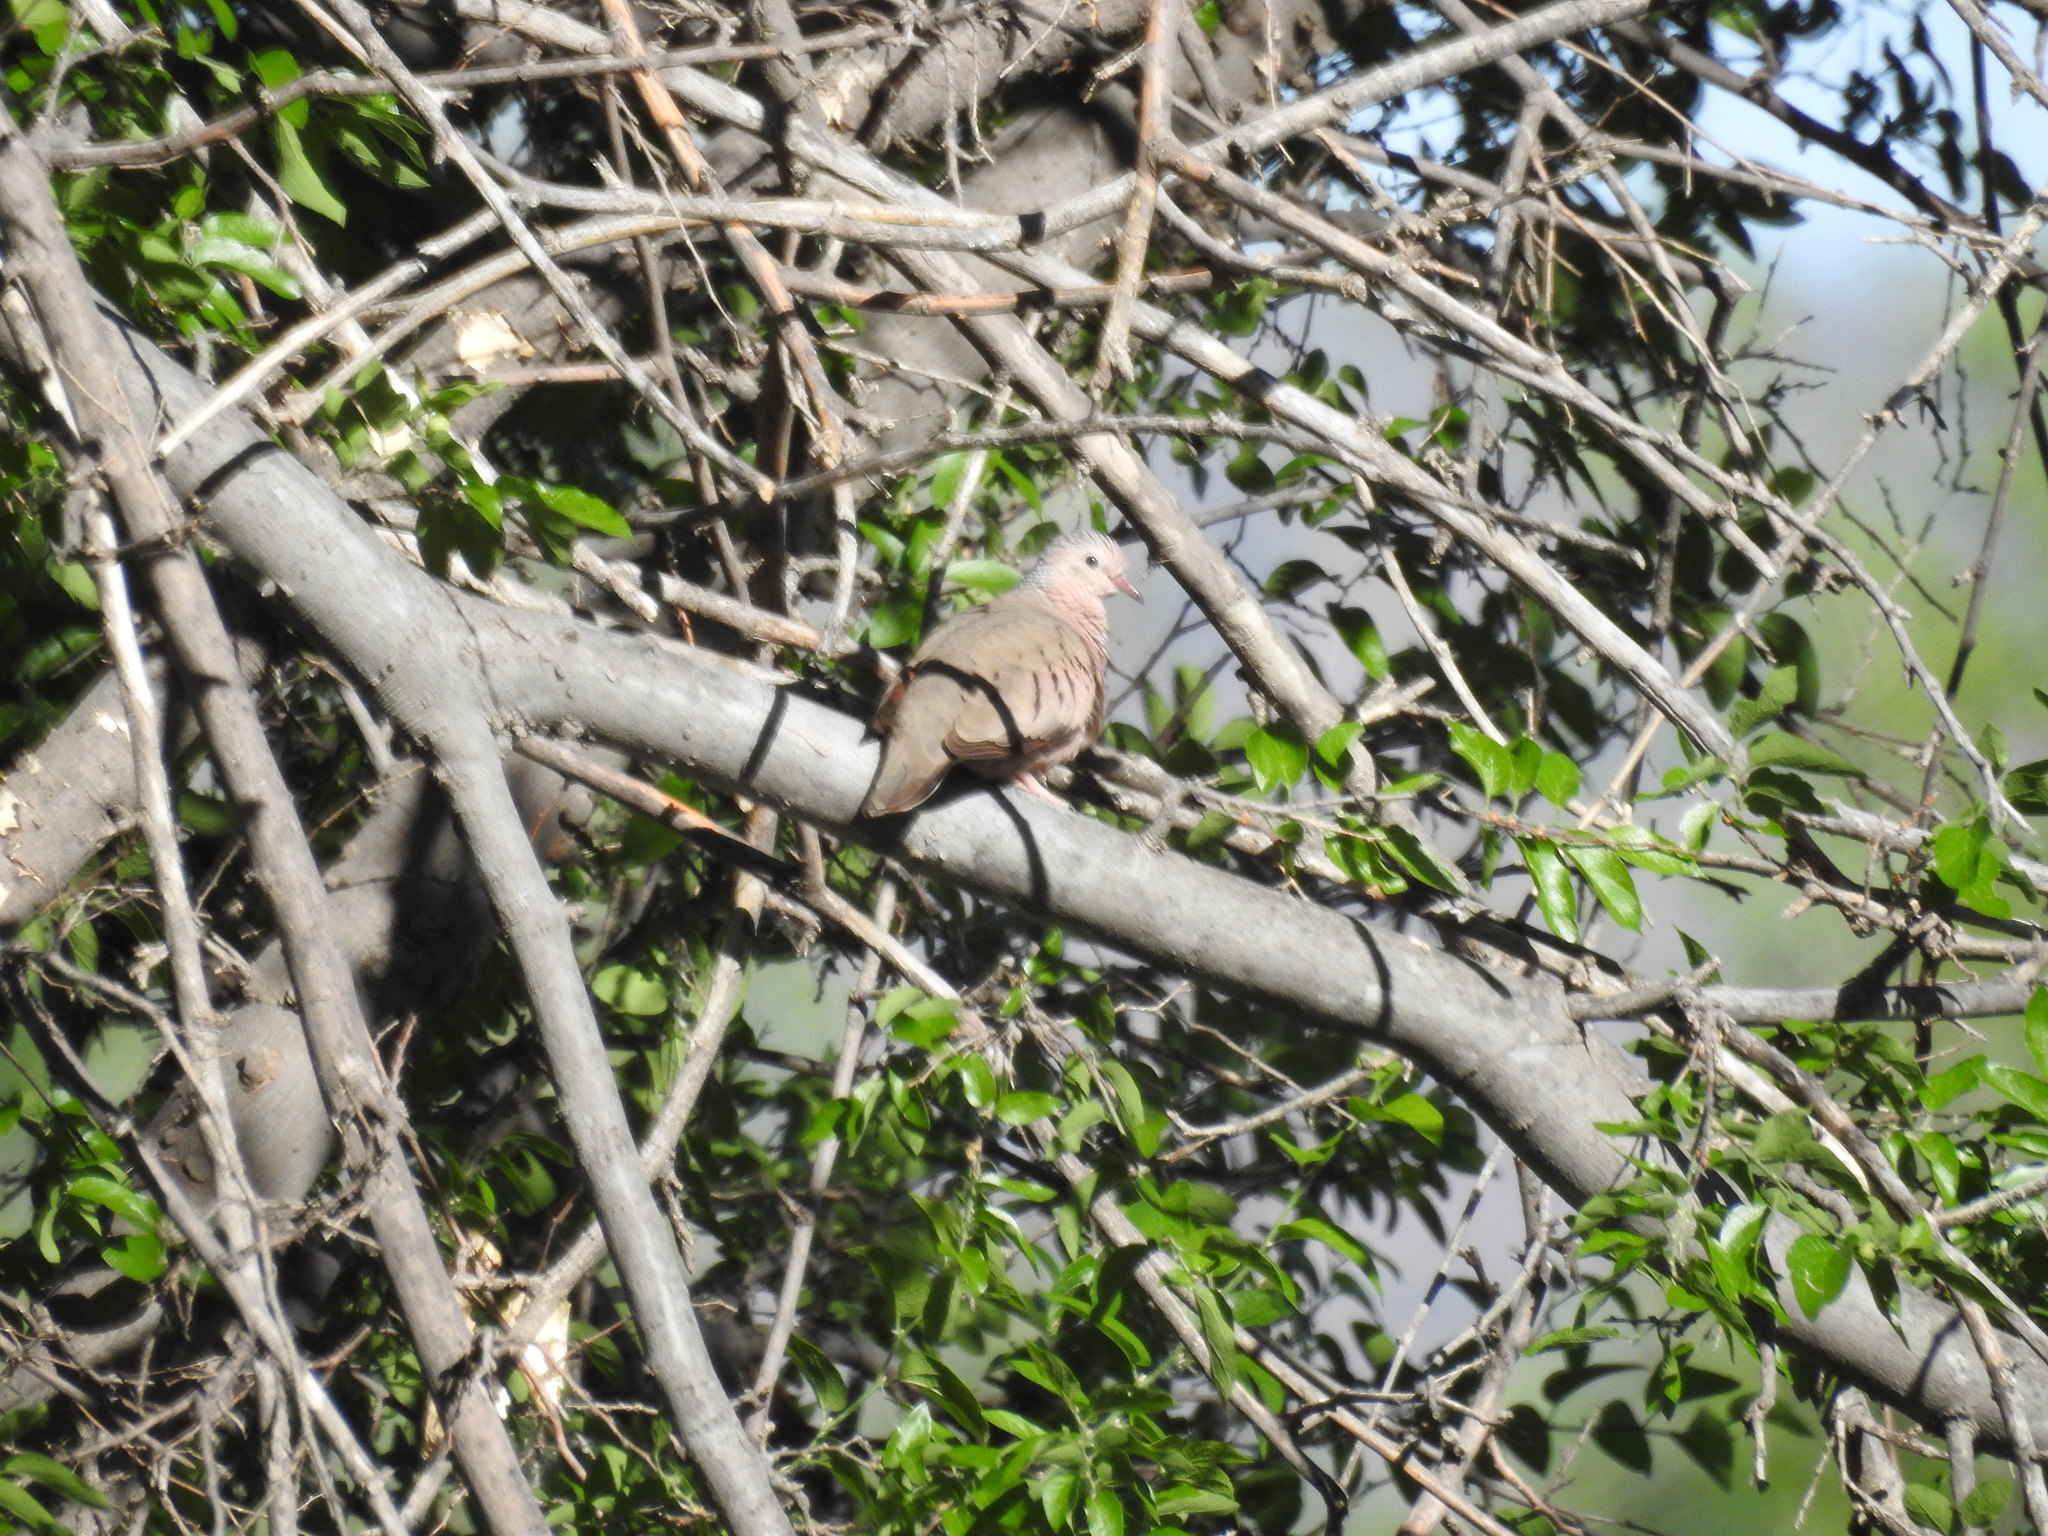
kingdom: Animalia
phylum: Chordata
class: Aves
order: Columbiformes
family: Columbidae
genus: Columbina
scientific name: Columbina passerina
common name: Common ground-dove
